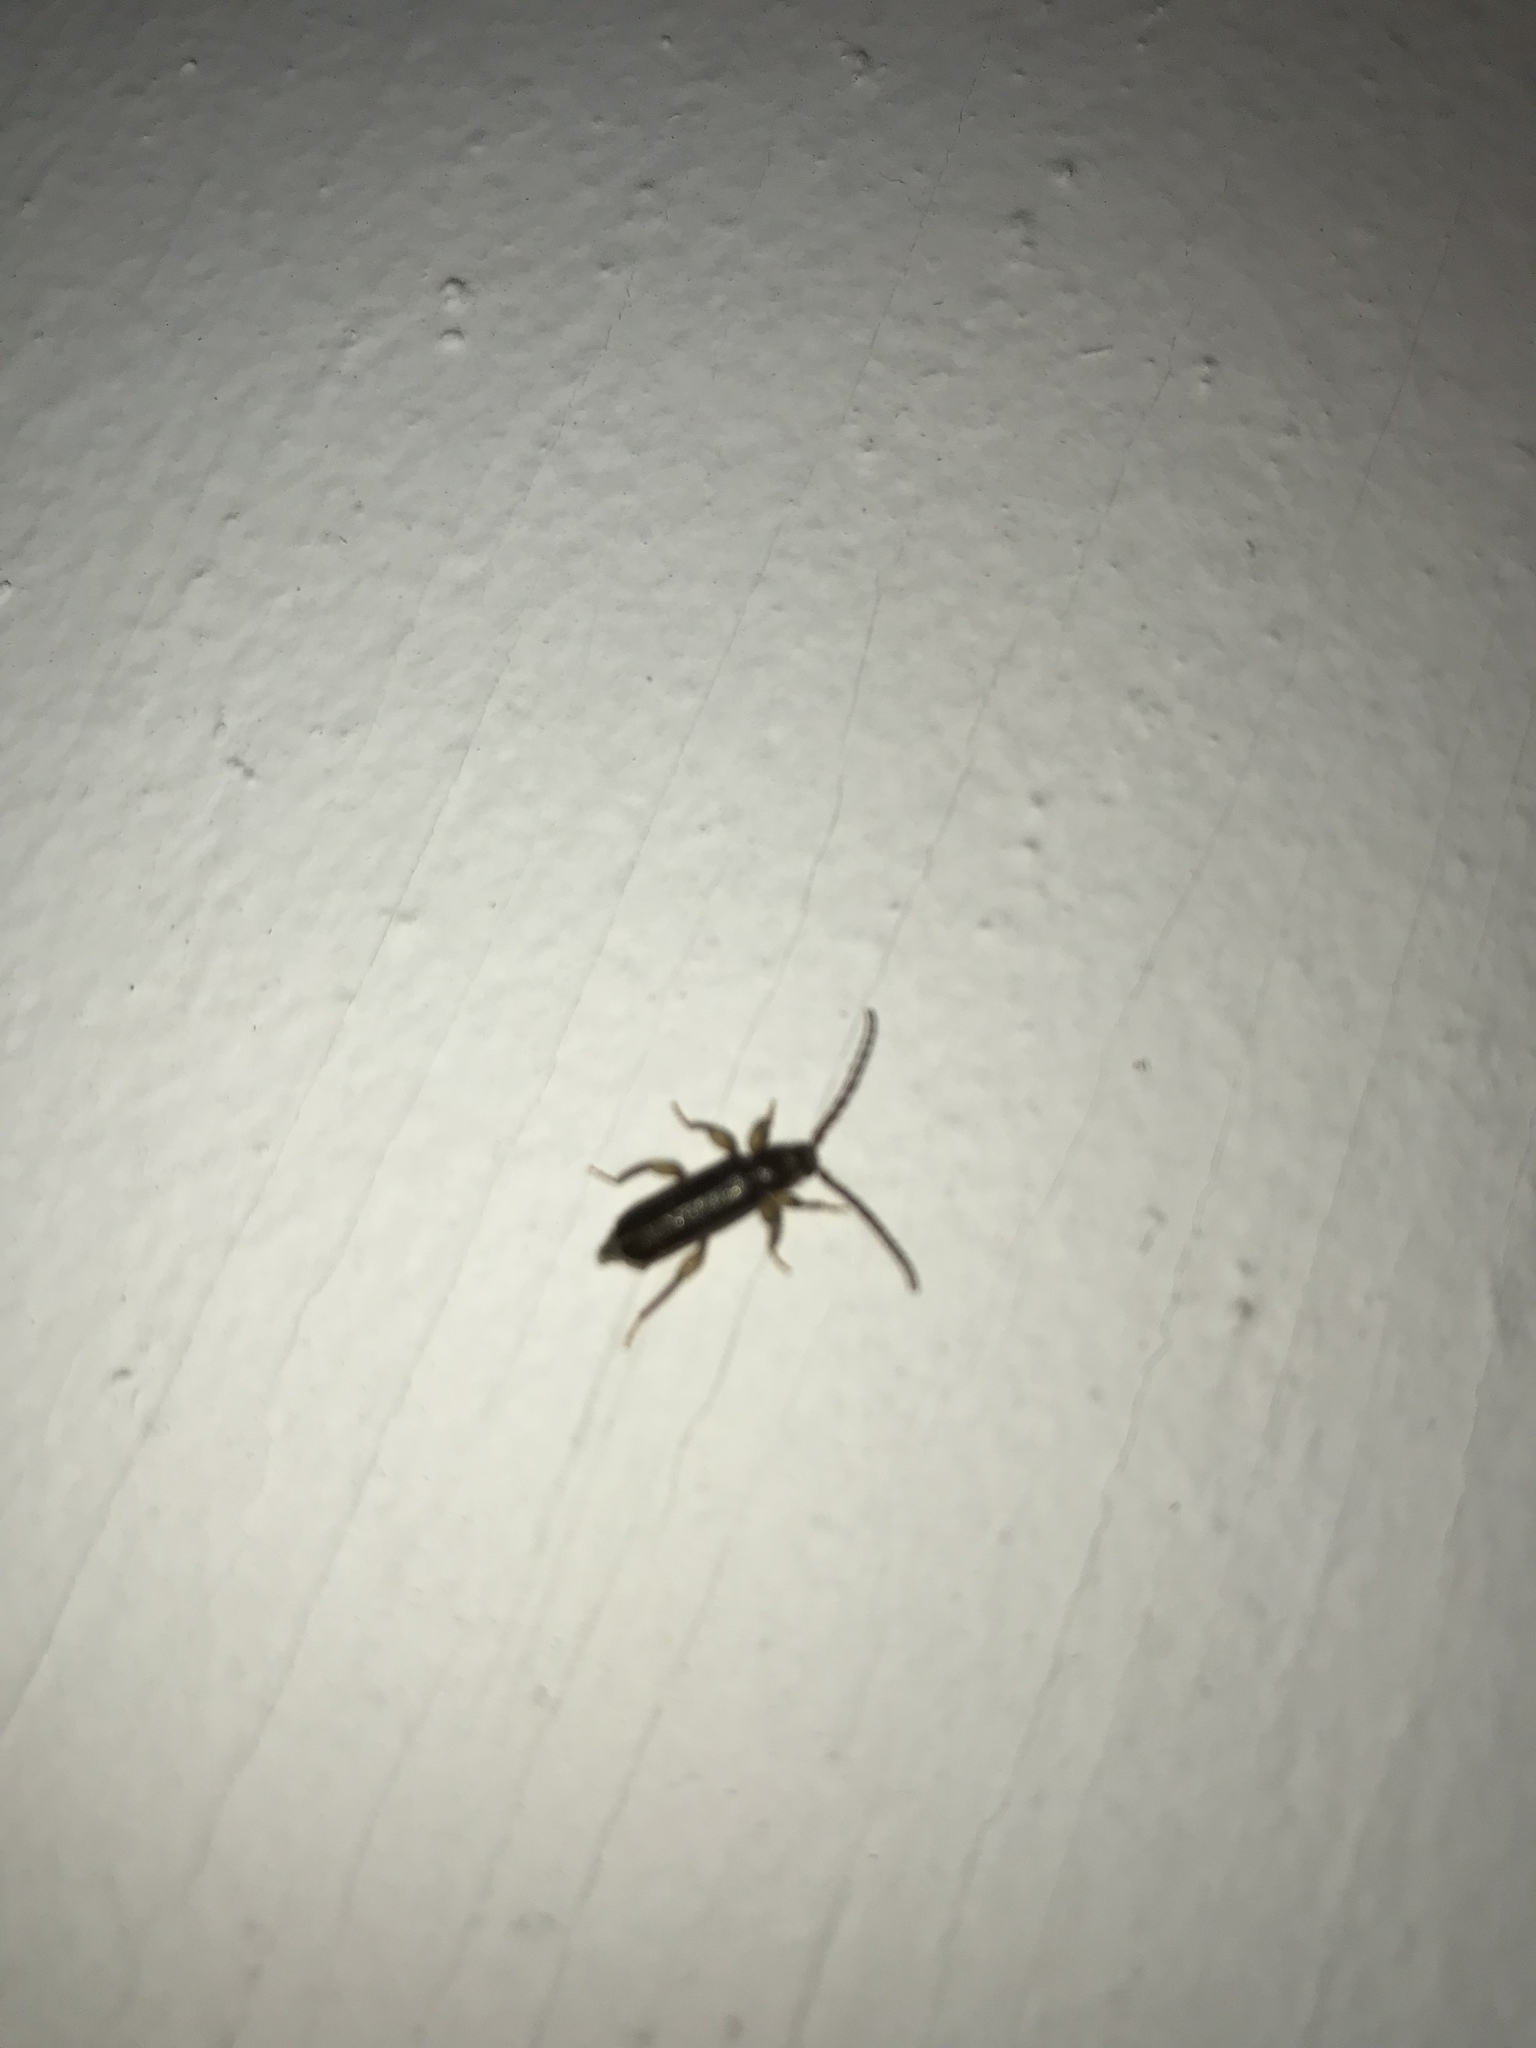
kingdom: Animalia
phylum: Arthropoda
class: Insecta
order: Coleoptera
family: Cerambycidae
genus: Phymatodes
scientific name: Phymatodes aereus
